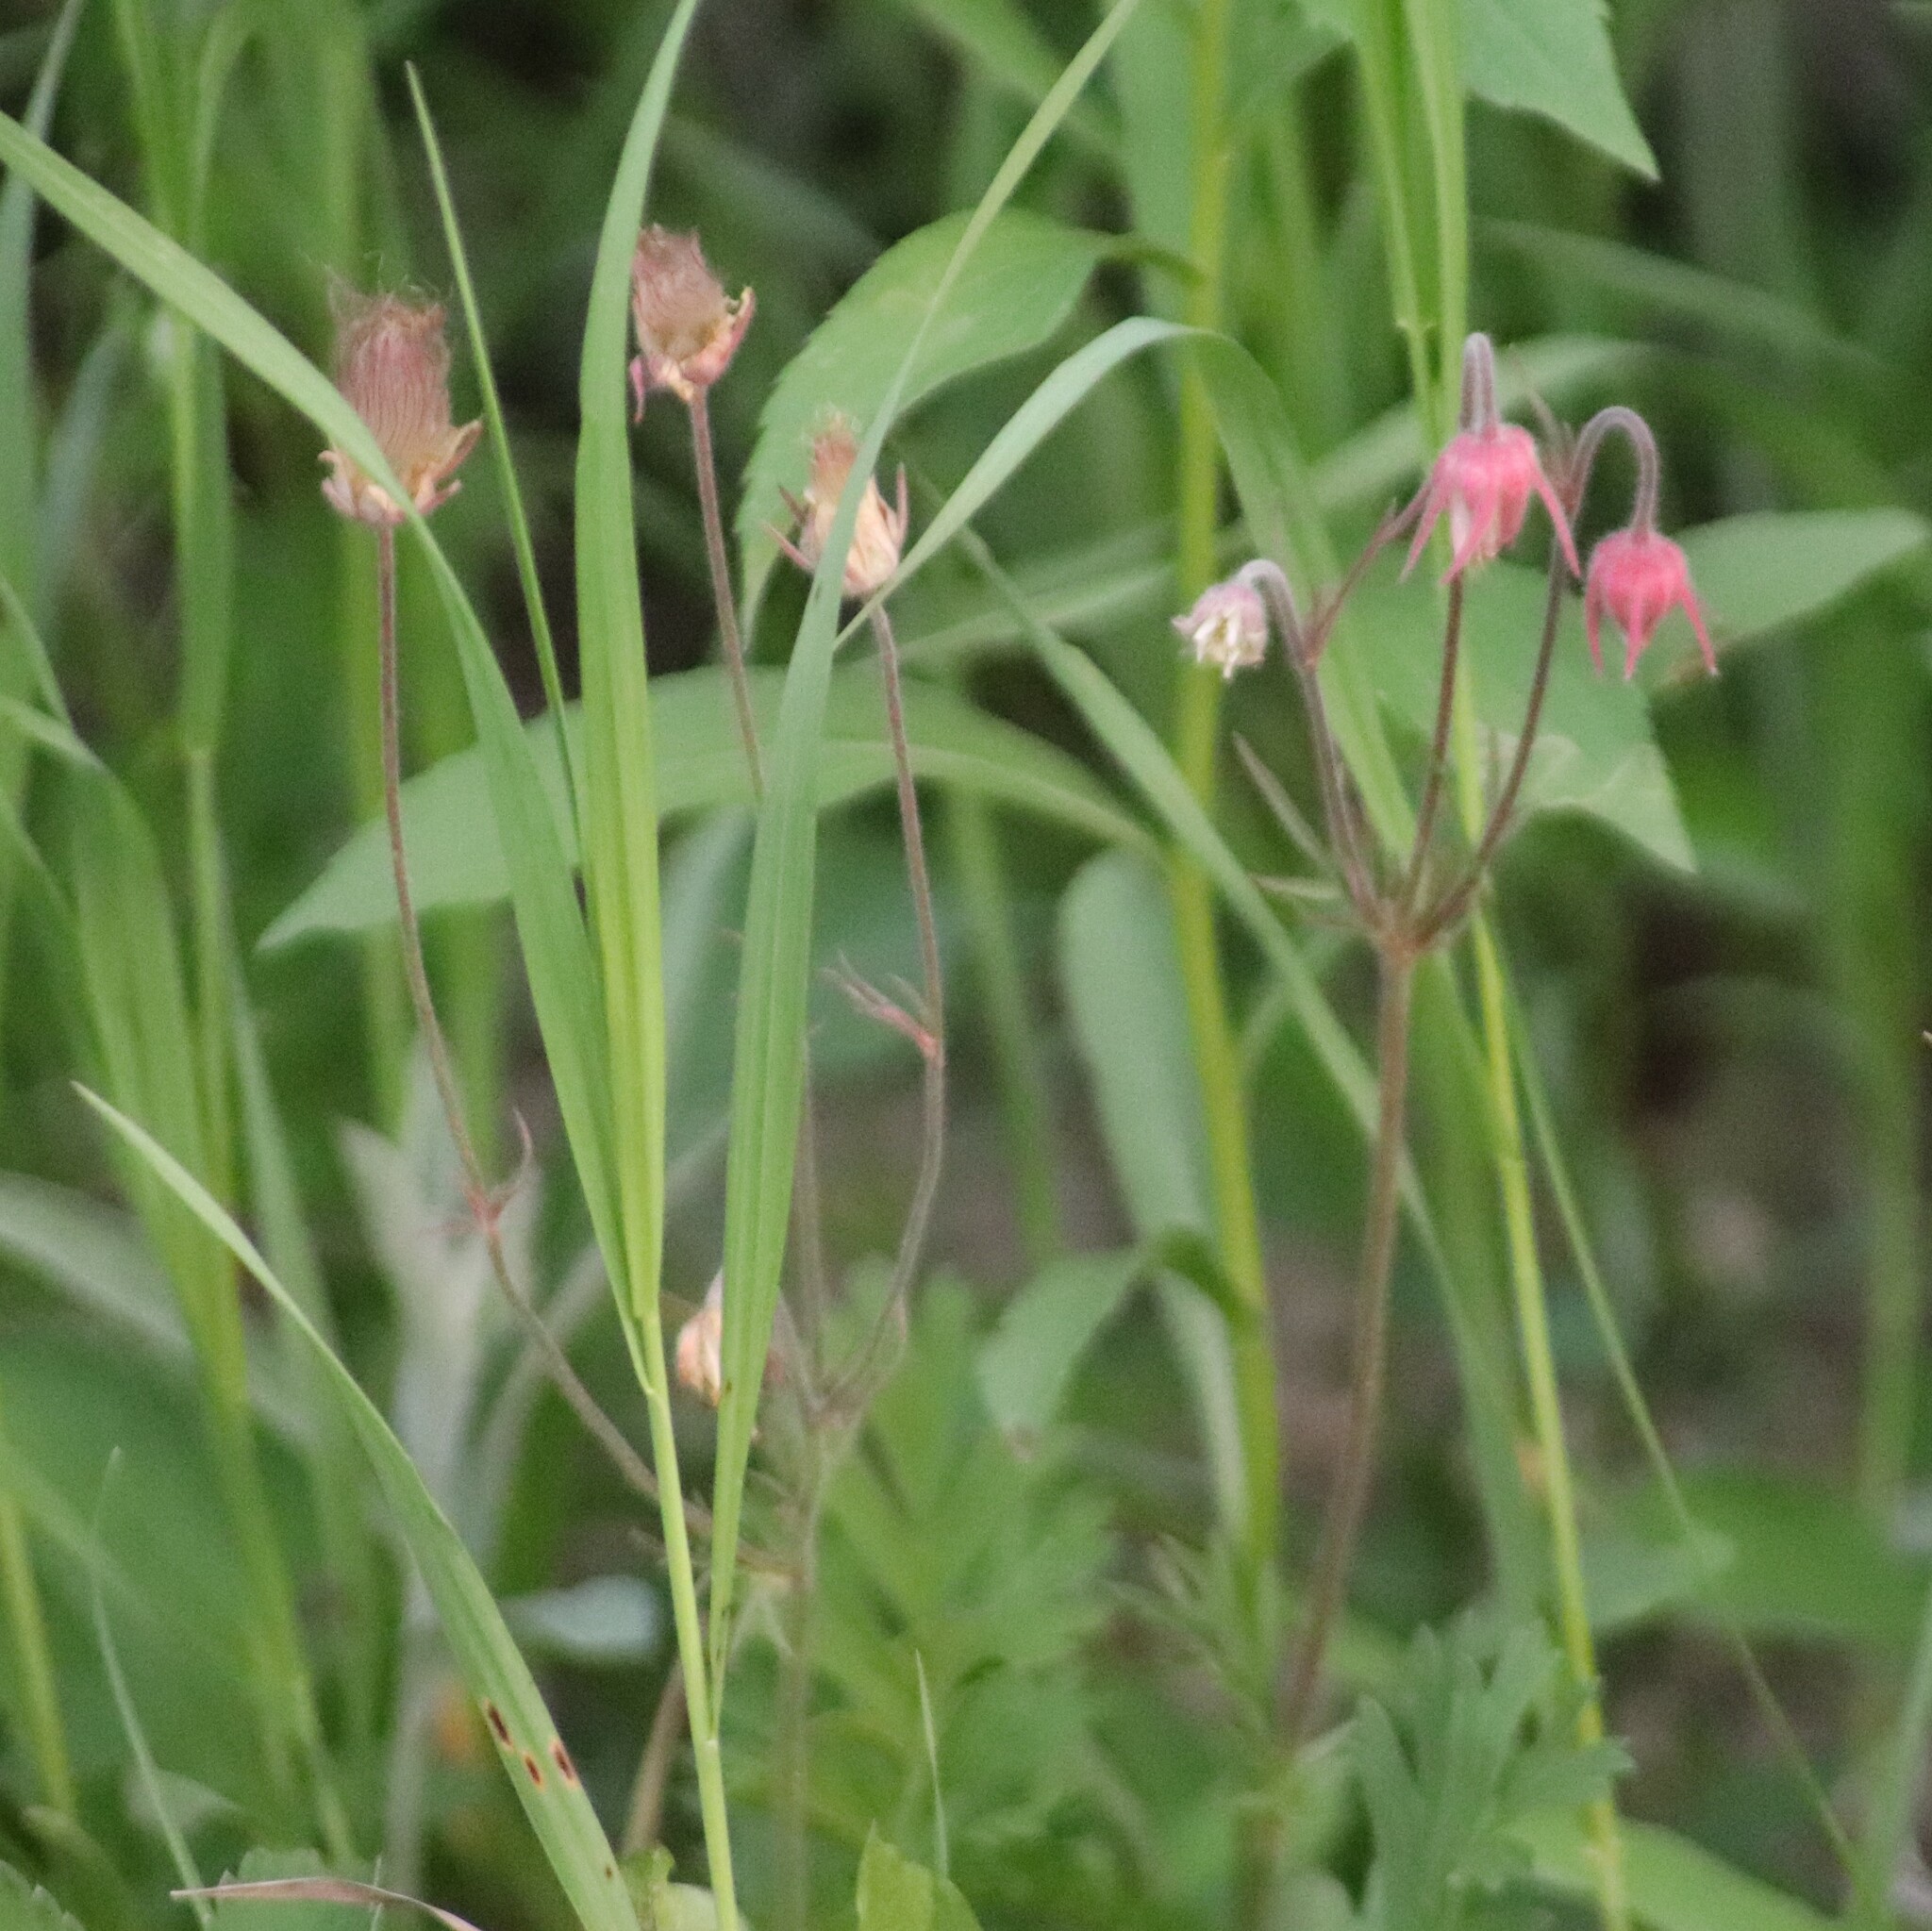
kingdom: Plantae
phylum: Tracheophyta
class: Magnoliopsida
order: Rosales
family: Rosaceae
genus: Geum
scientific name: Geum triflorum
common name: Old man's whiskers
